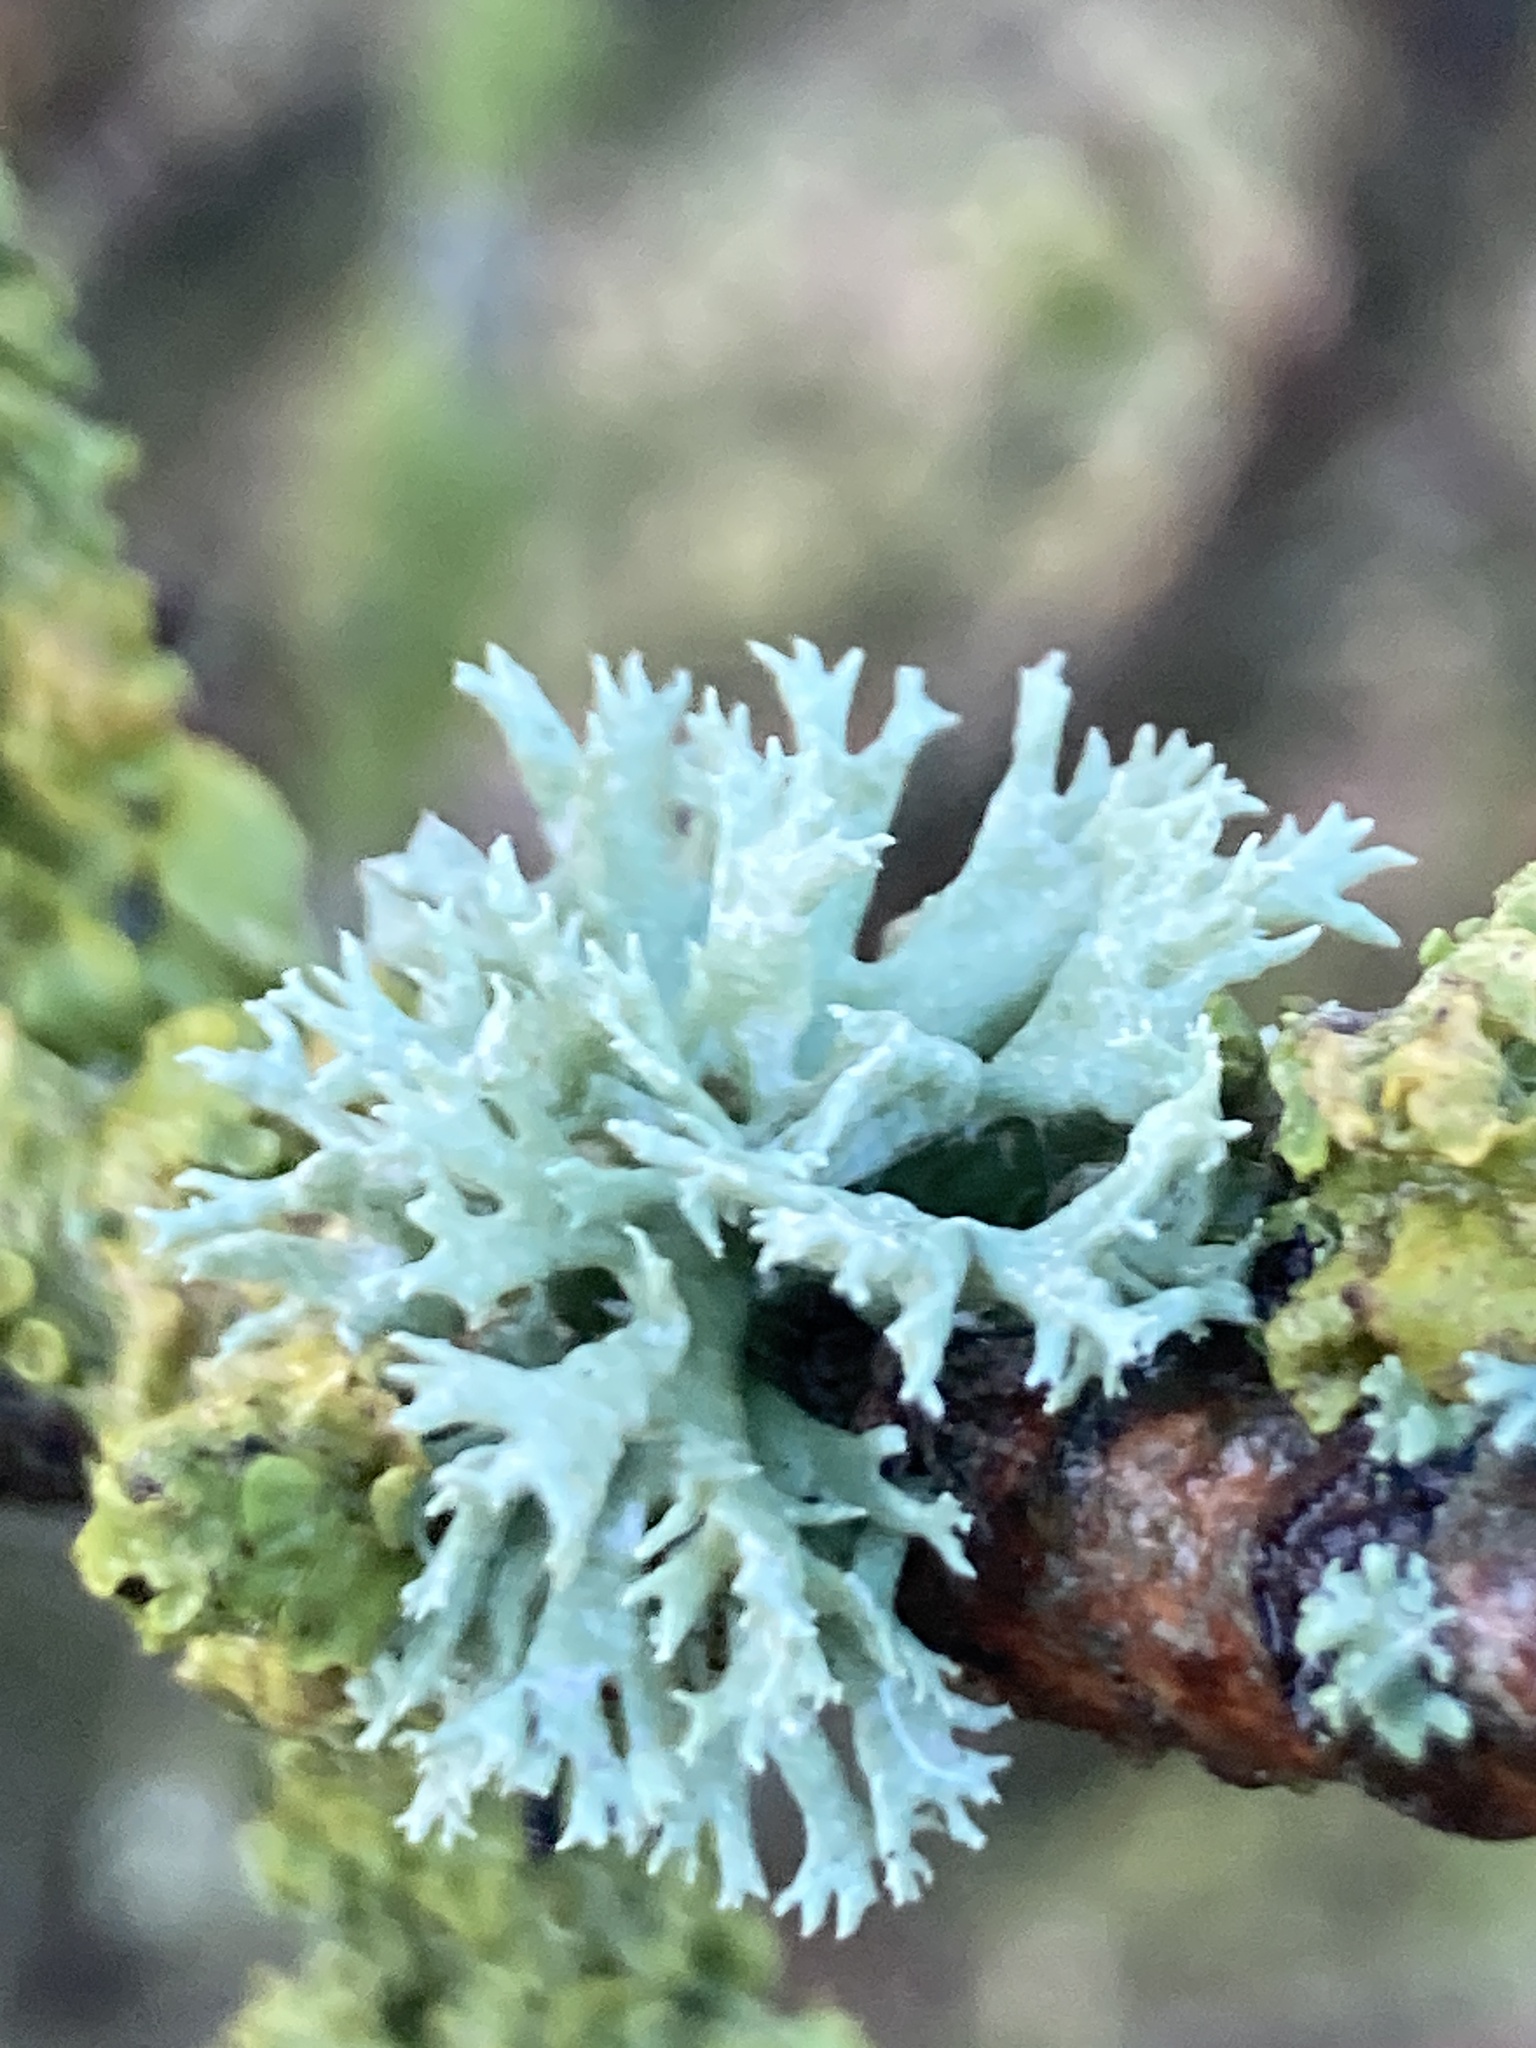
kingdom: Fungi
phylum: Ascomycota
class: Lecanoromycetes
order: Lecanorales
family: Parmeliaceae
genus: Evernia
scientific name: Evernia prunastri
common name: Oak moss
